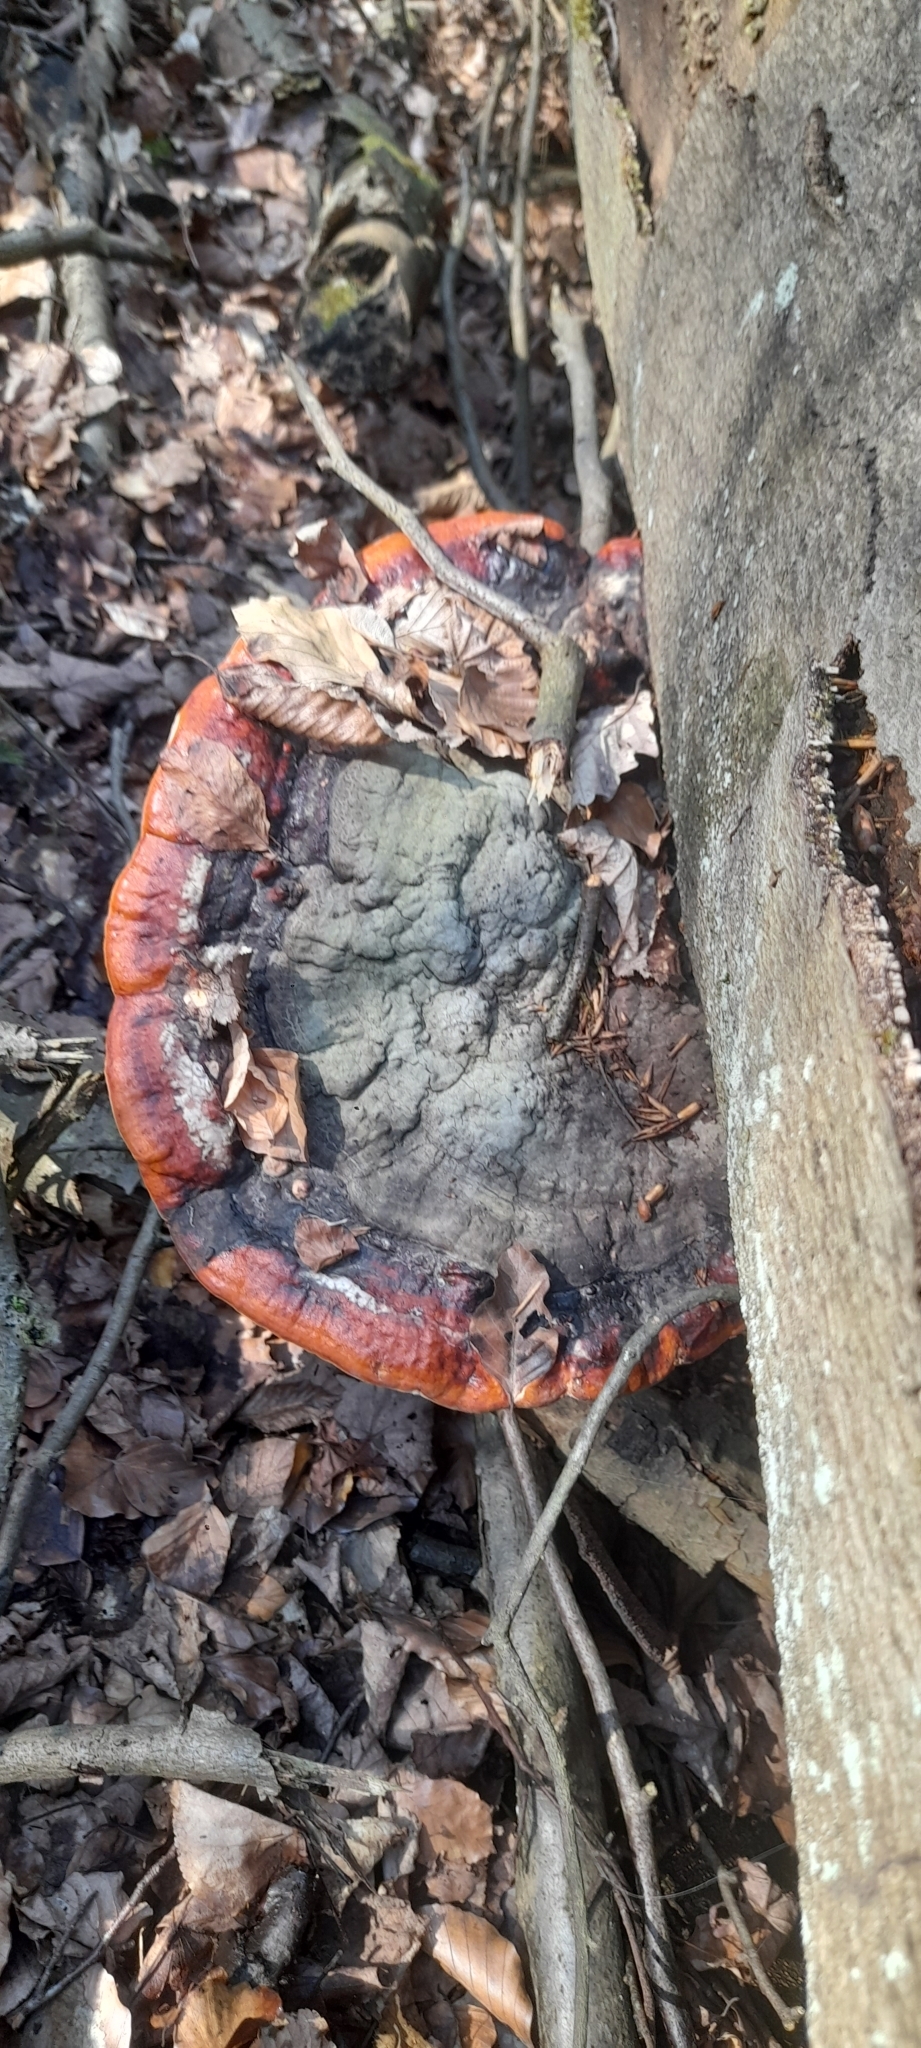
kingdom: Fungi
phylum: Basidiomycota
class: Agaricomycetes
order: Polyporales
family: Fomitopsidaceae
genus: Fomitopsis
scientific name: Fomitopsis pinicola
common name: Red-belted bracket
